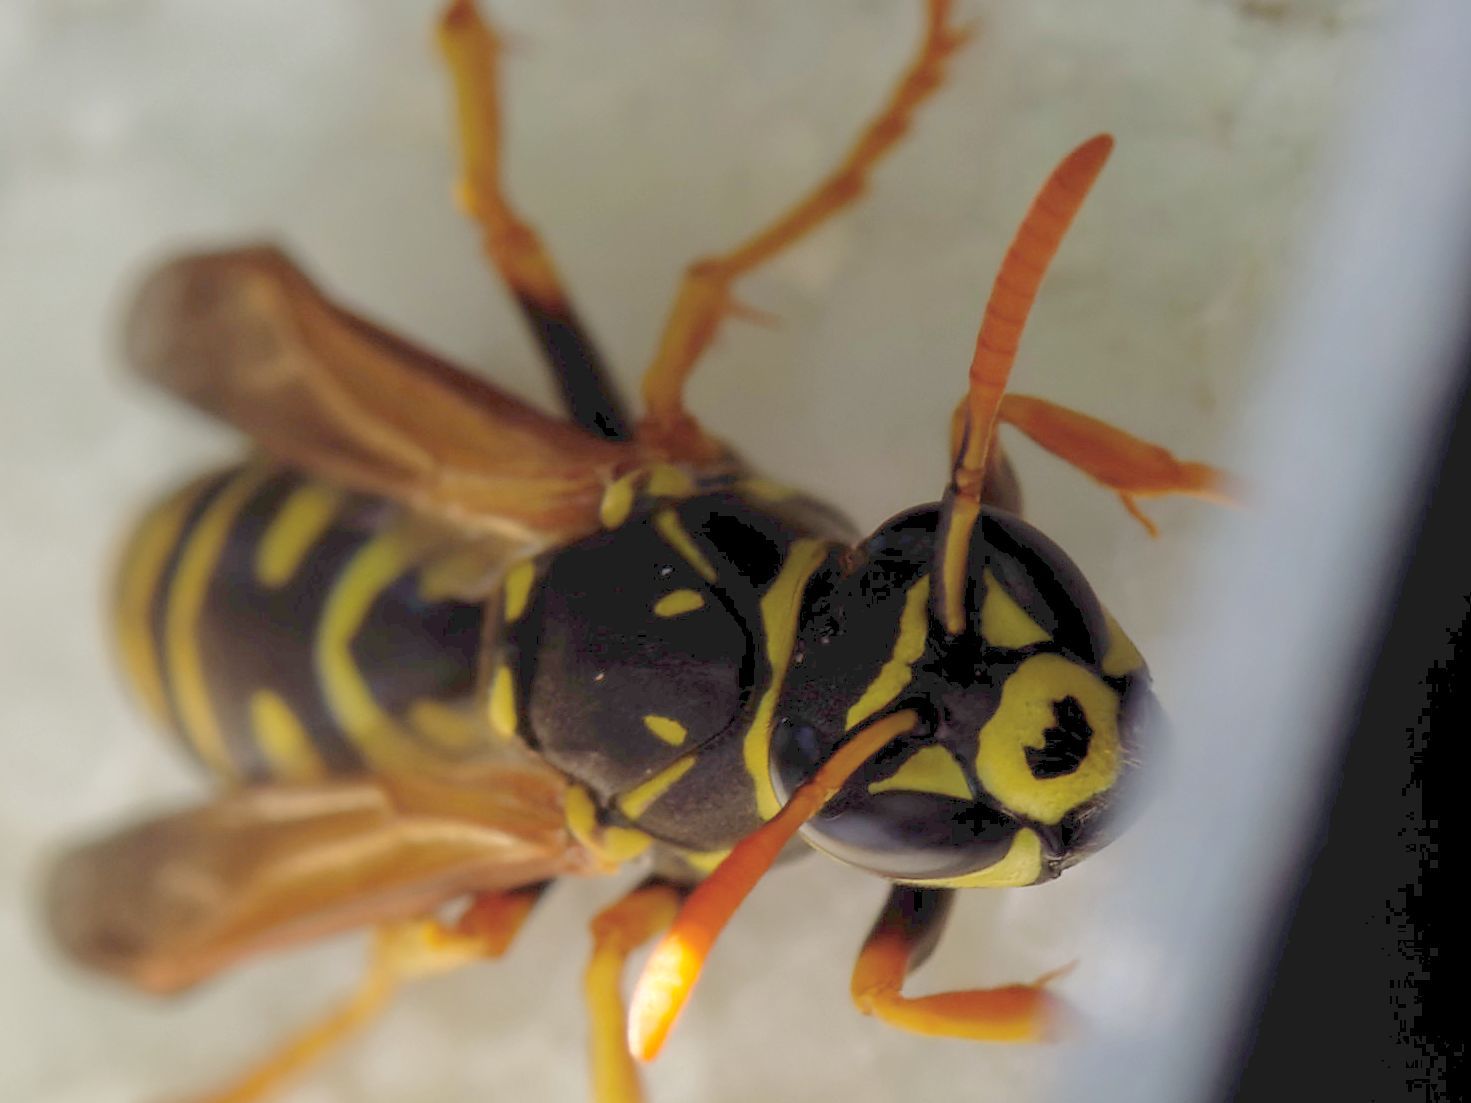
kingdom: Animalia
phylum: Arthropoda
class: Insecta
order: Hymenoptera
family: Eumenidae
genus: Polistes
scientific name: Polistes dominula
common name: Paper wasp
